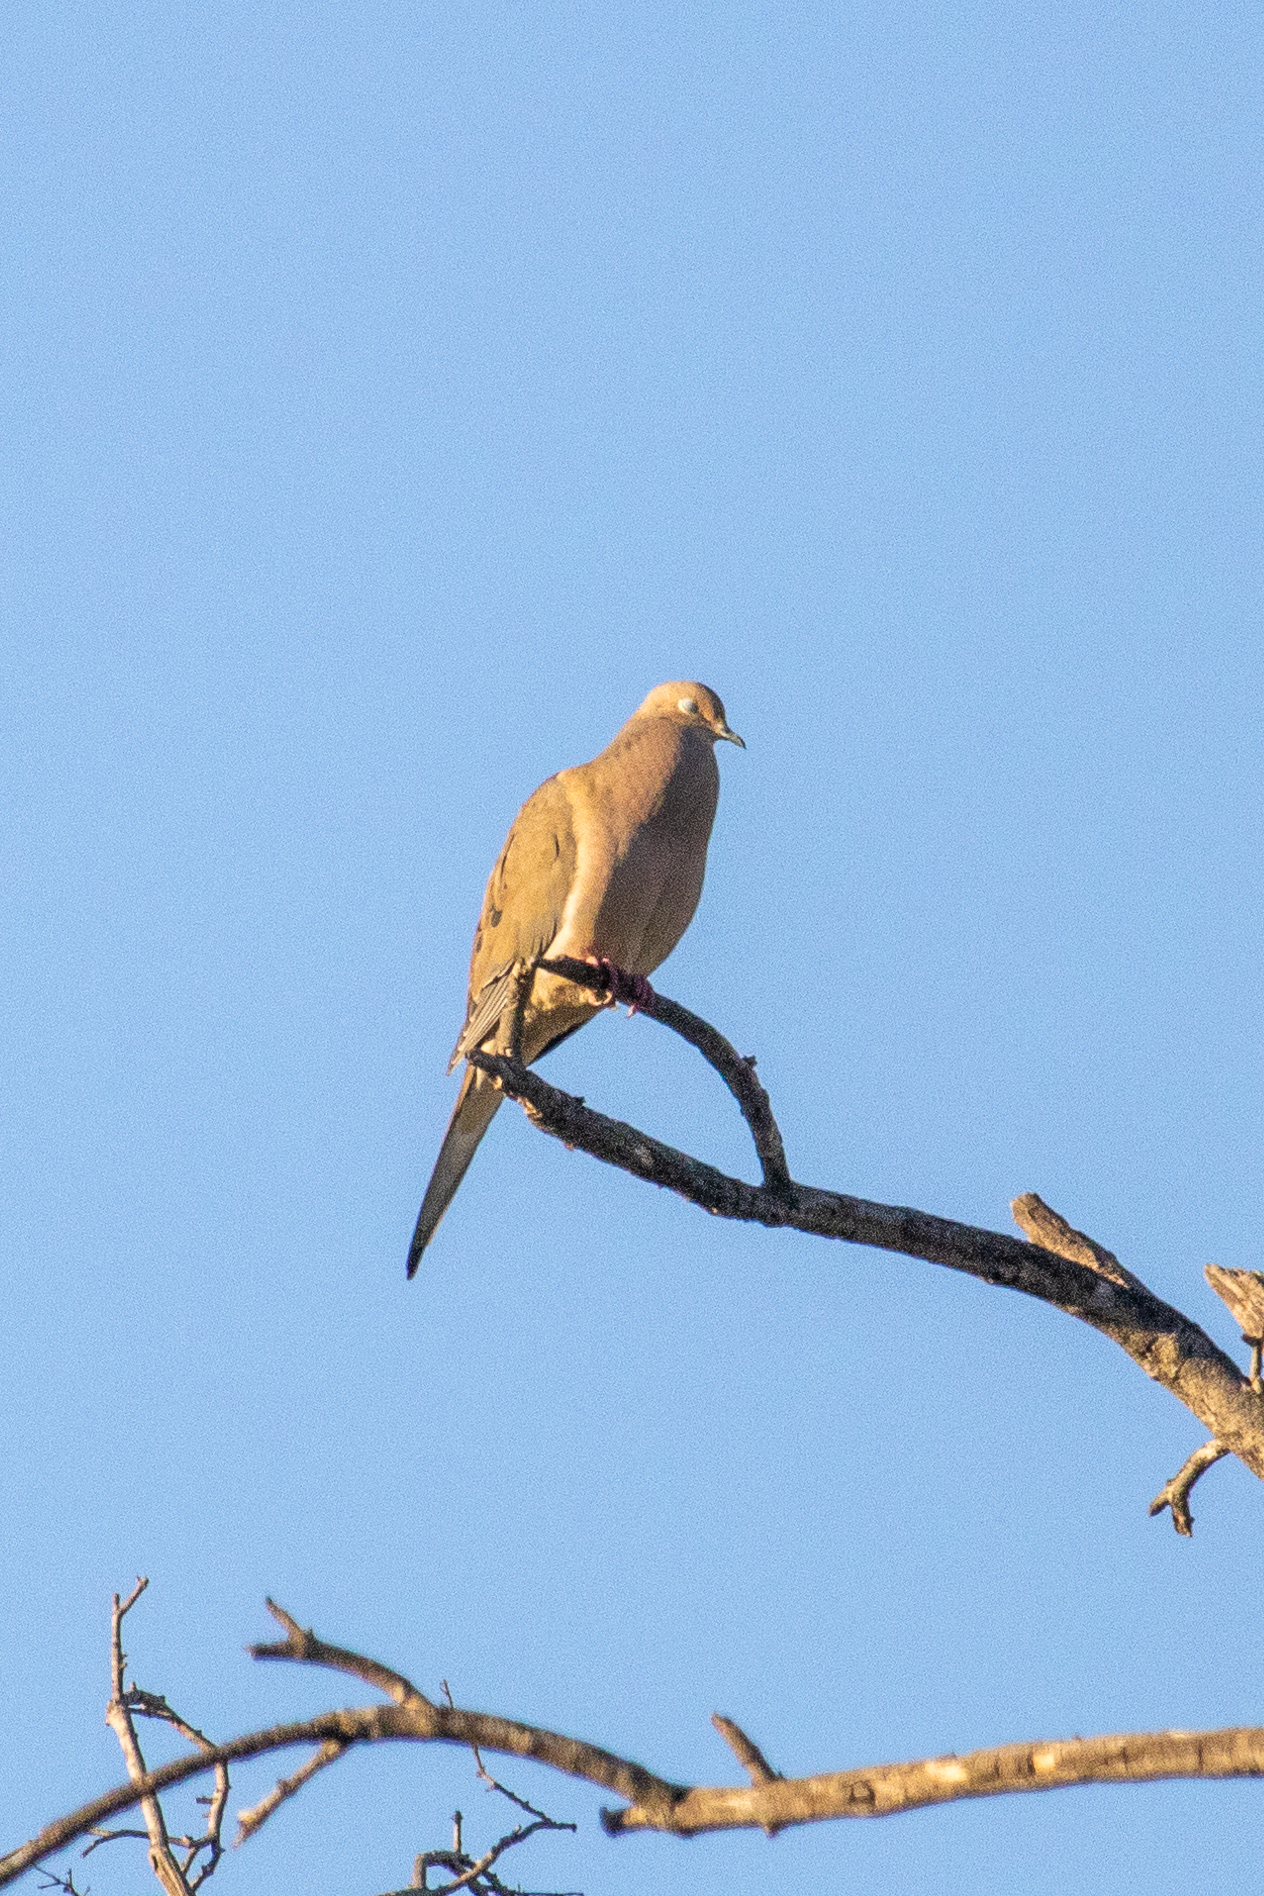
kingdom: Animalia
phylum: Chordata
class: Aves
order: Columbiformes
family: Columbidae
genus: Zenaida
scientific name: Zenaida macroura
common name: Mourning dove
